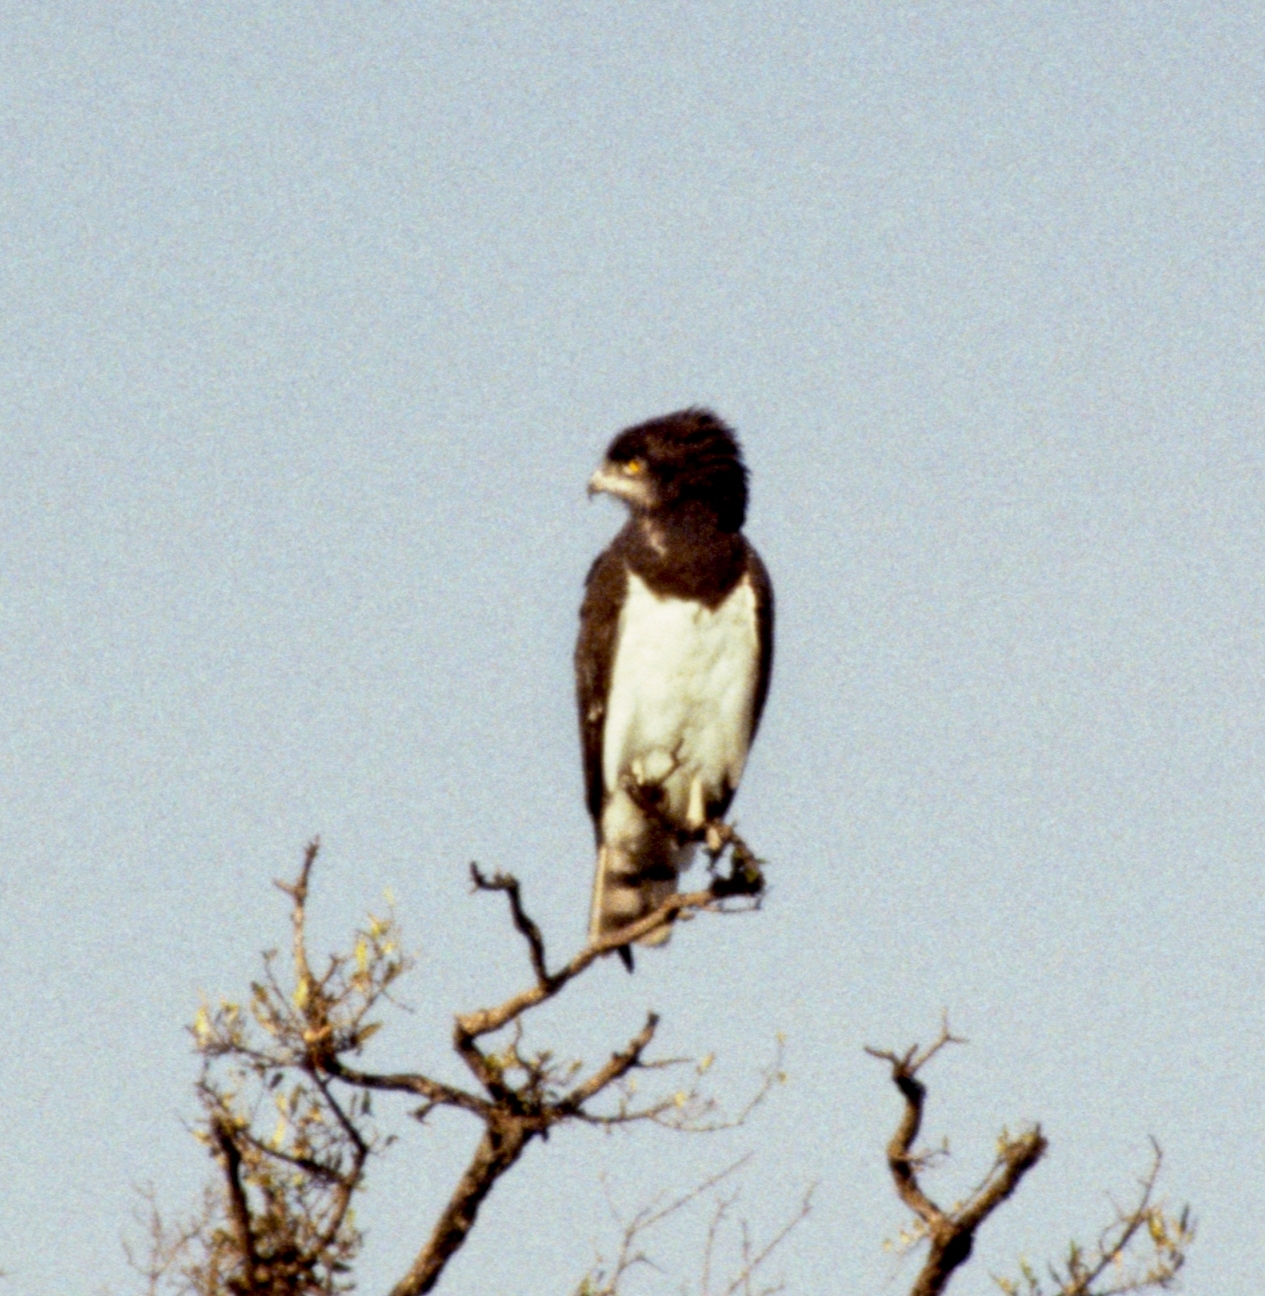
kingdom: Animalia
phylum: Chordata
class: Aves
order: Accipitriformes
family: Accipitridae
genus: Circaetus
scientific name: Circaetus pectoralis
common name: Black-chested snake eagle
